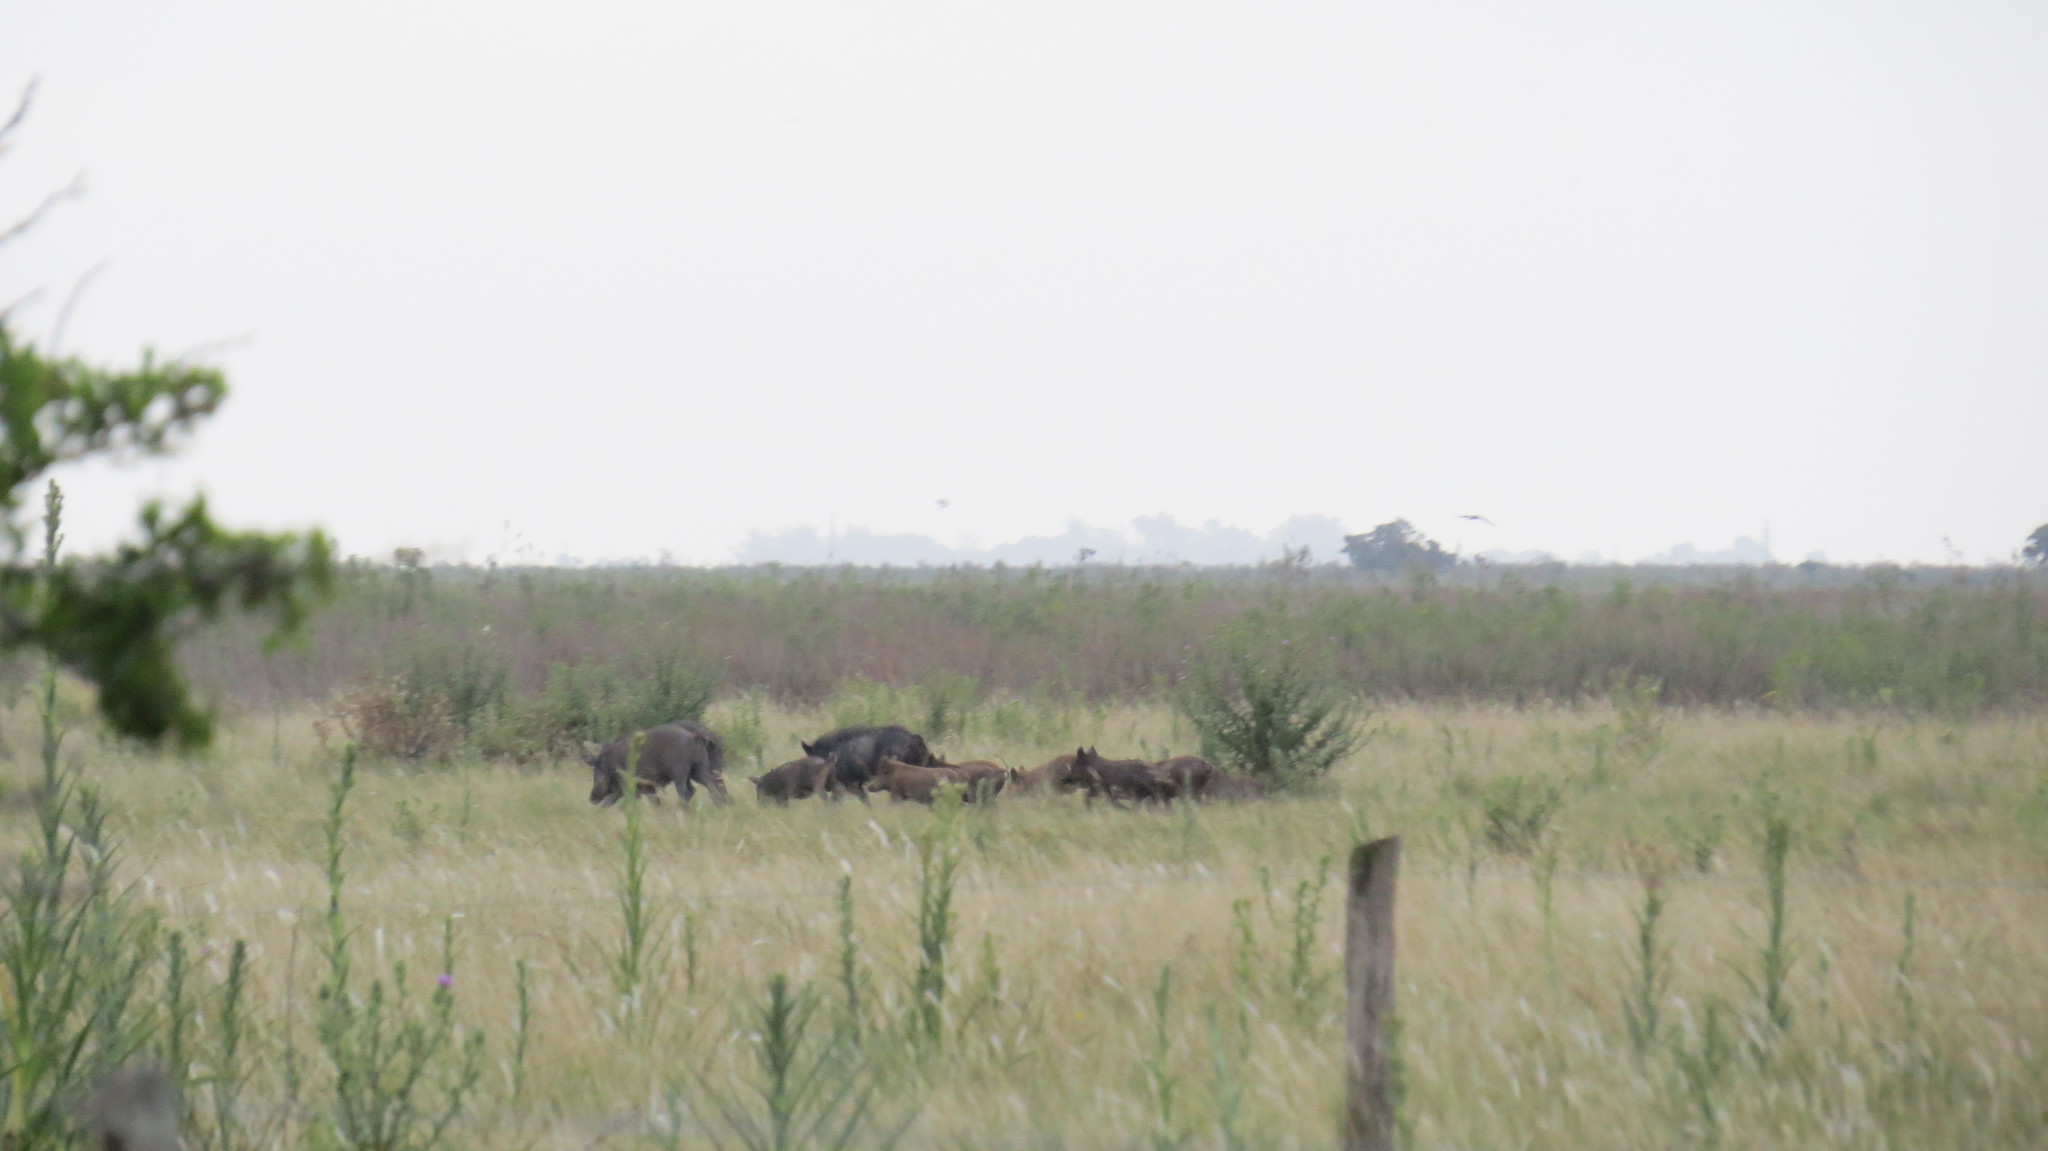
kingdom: Animalia
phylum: Chordata
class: Mammalia
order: Artiodactyla
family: Suidae
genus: Sus
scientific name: Sus scrofa
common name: Wild boar
